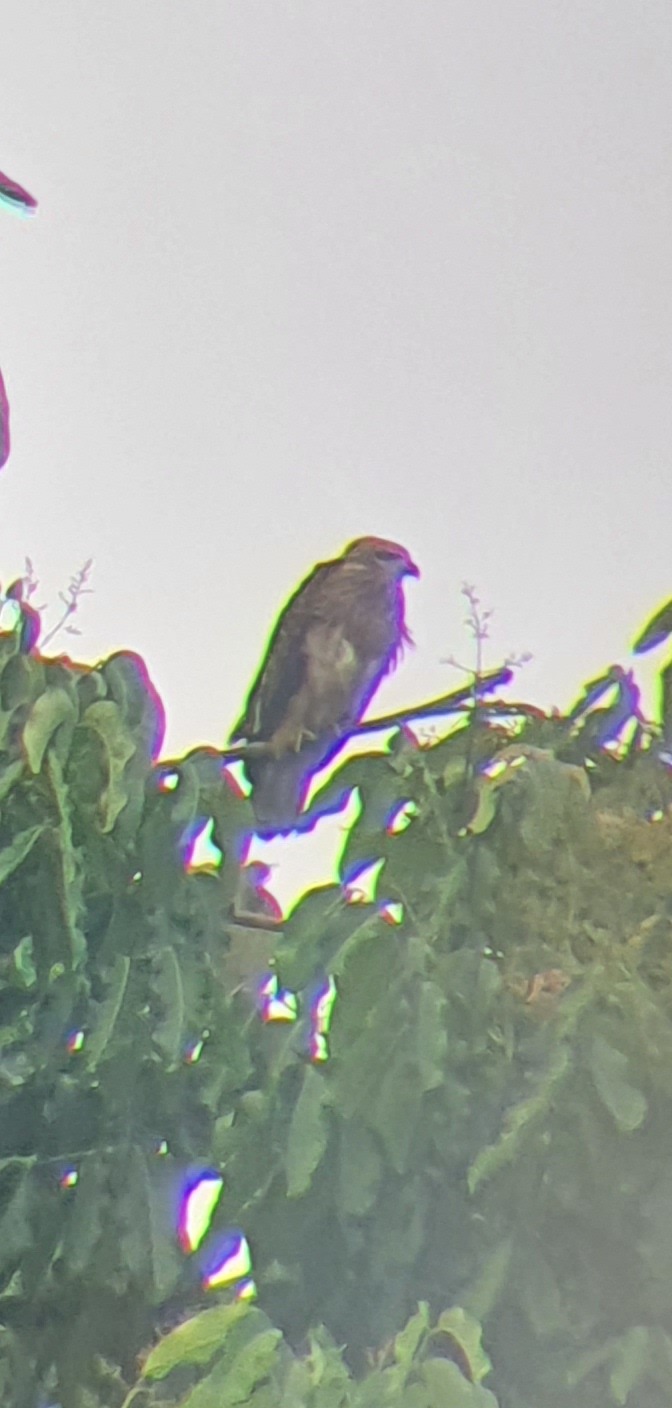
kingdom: Animalia
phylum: Chordata
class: Aves
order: Accipitriformes
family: Accipitridae
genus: Haliastur
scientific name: Haliastur indus
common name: Brahminy kite
